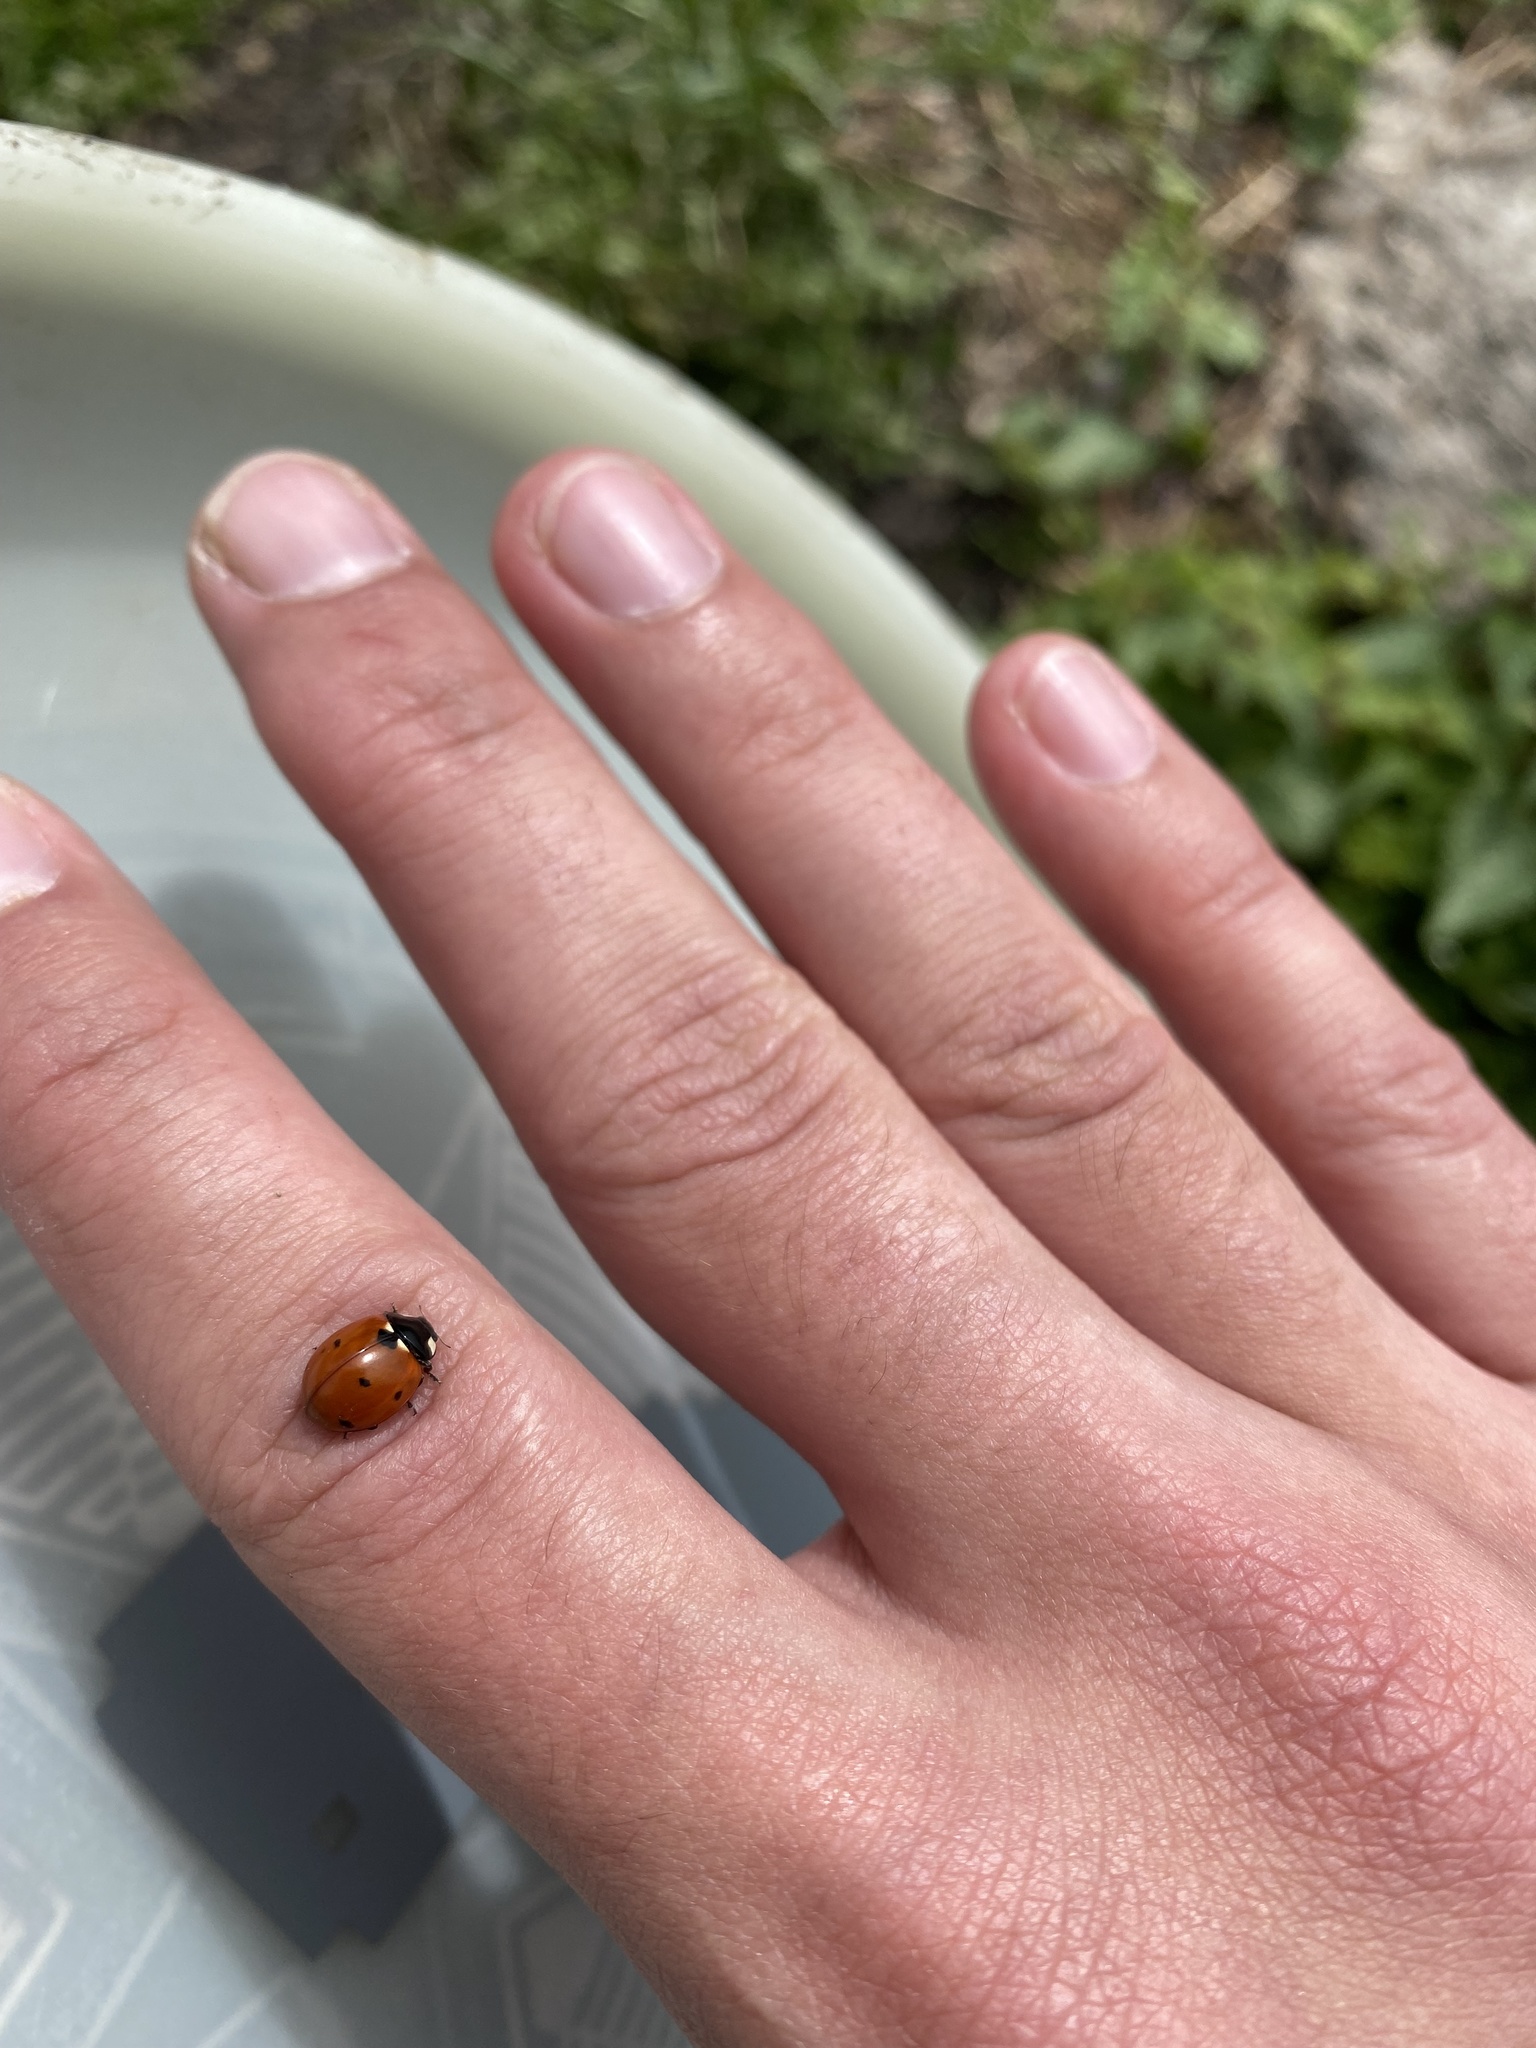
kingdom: Animalia
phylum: Arthropoda
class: Insecta
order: Coleoptera
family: Coccinellidae
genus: Coccinella
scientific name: Coccinella septempunctata
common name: Sevenspotted lady beetle
